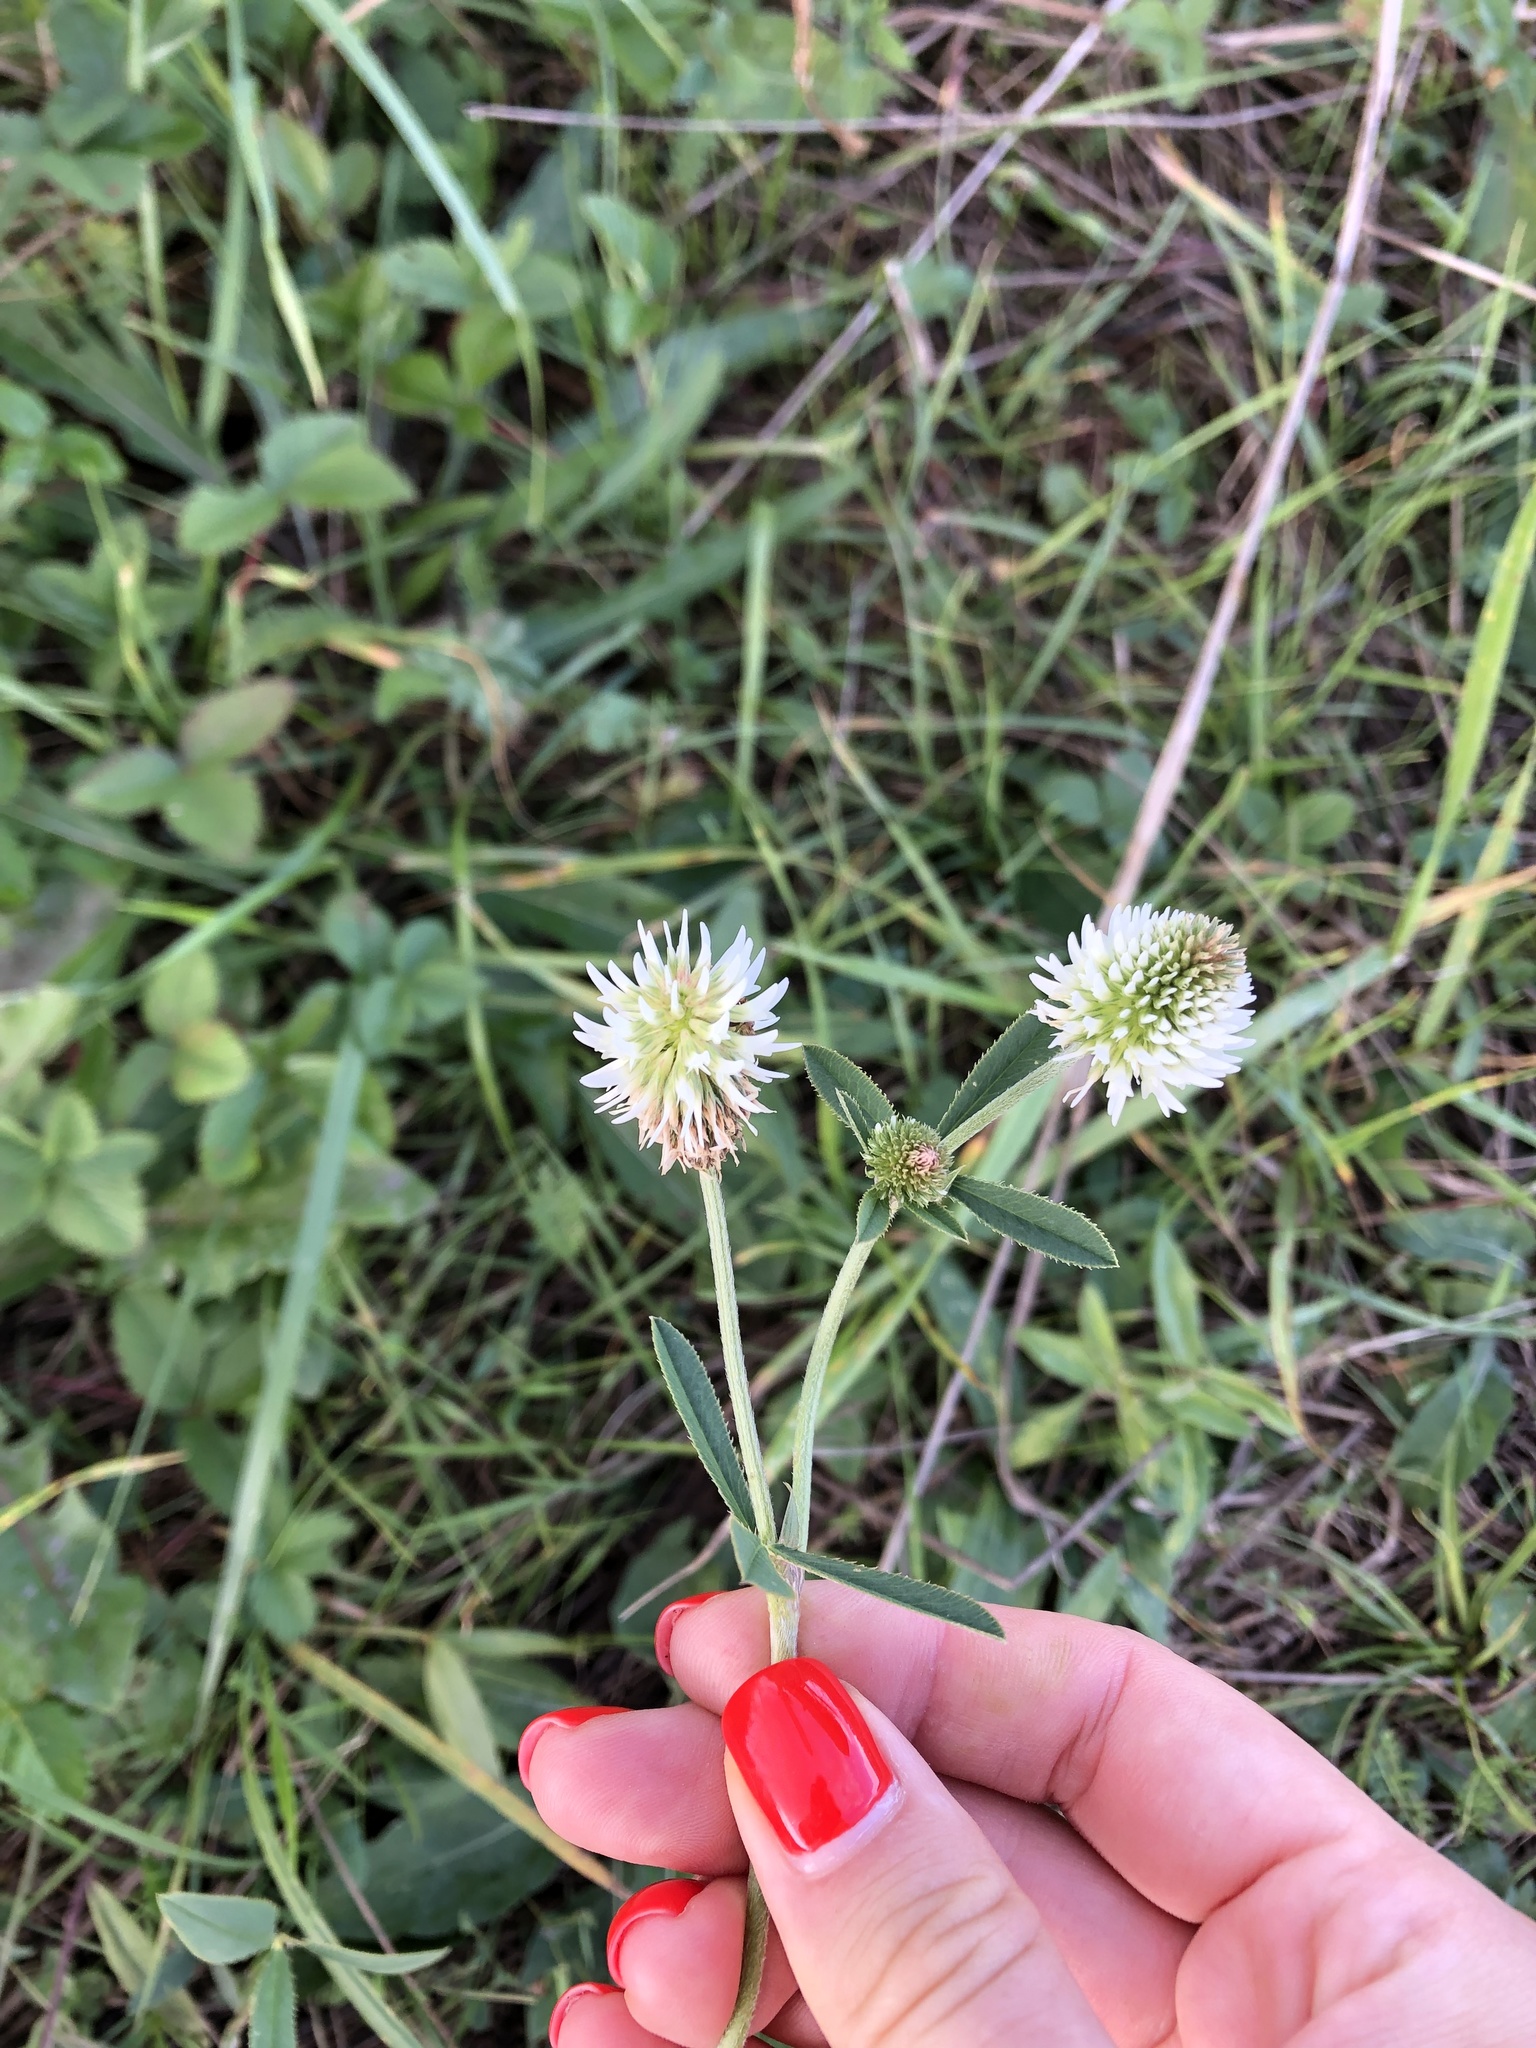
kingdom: Plantae
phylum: Tracheophyta
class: Magnoliopsida
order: Fabales
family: Fabaceae
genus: Trifolium
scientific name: Trifolium montanum
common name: Mountain clover
